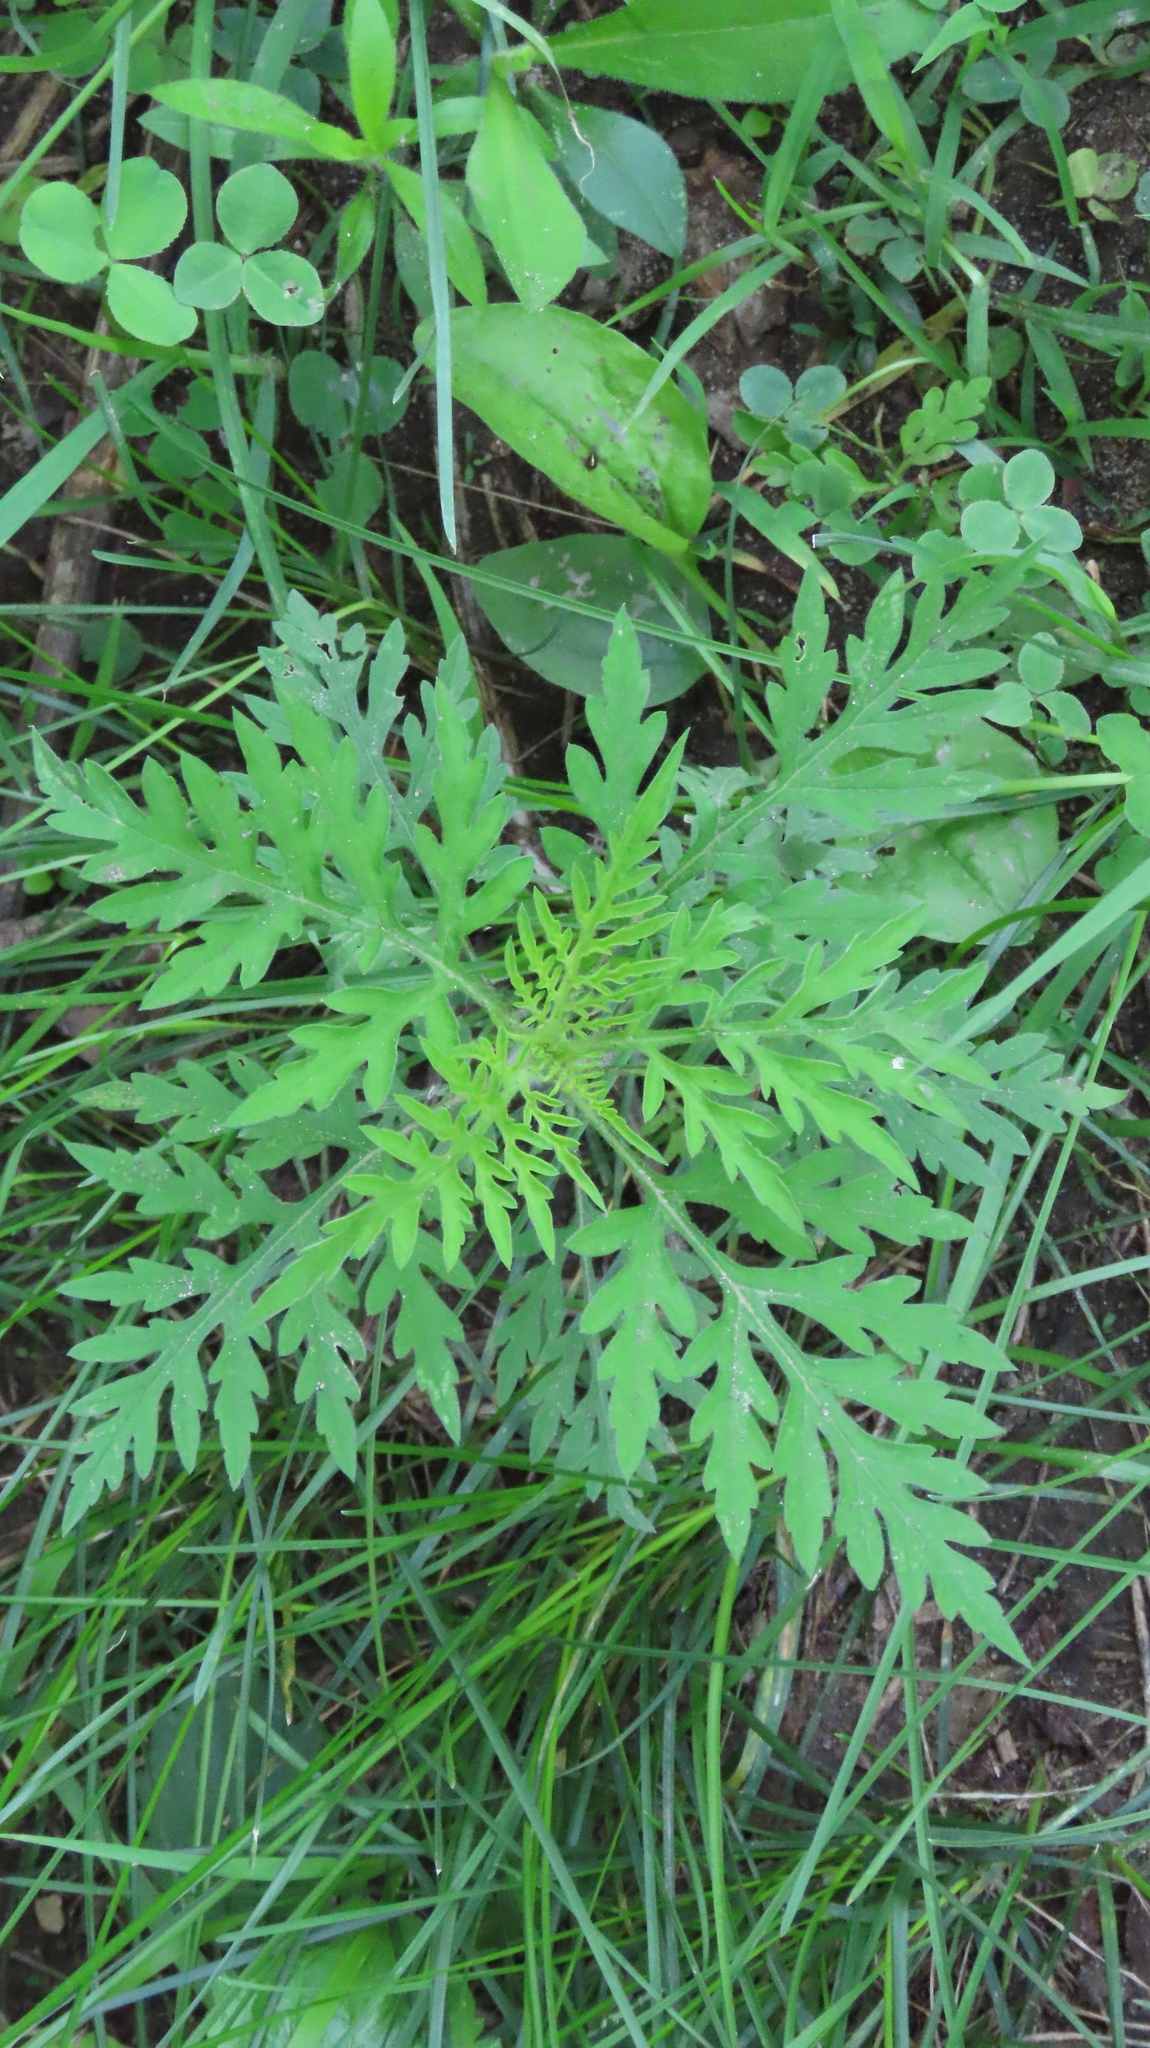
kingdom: Plantae
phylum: Tracheophyta
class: Magnoliopsida
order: Asterales
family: Asteraceae
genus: Ambrosia
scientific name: Ambrosia artemisiifolia
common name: Annual ragweed
